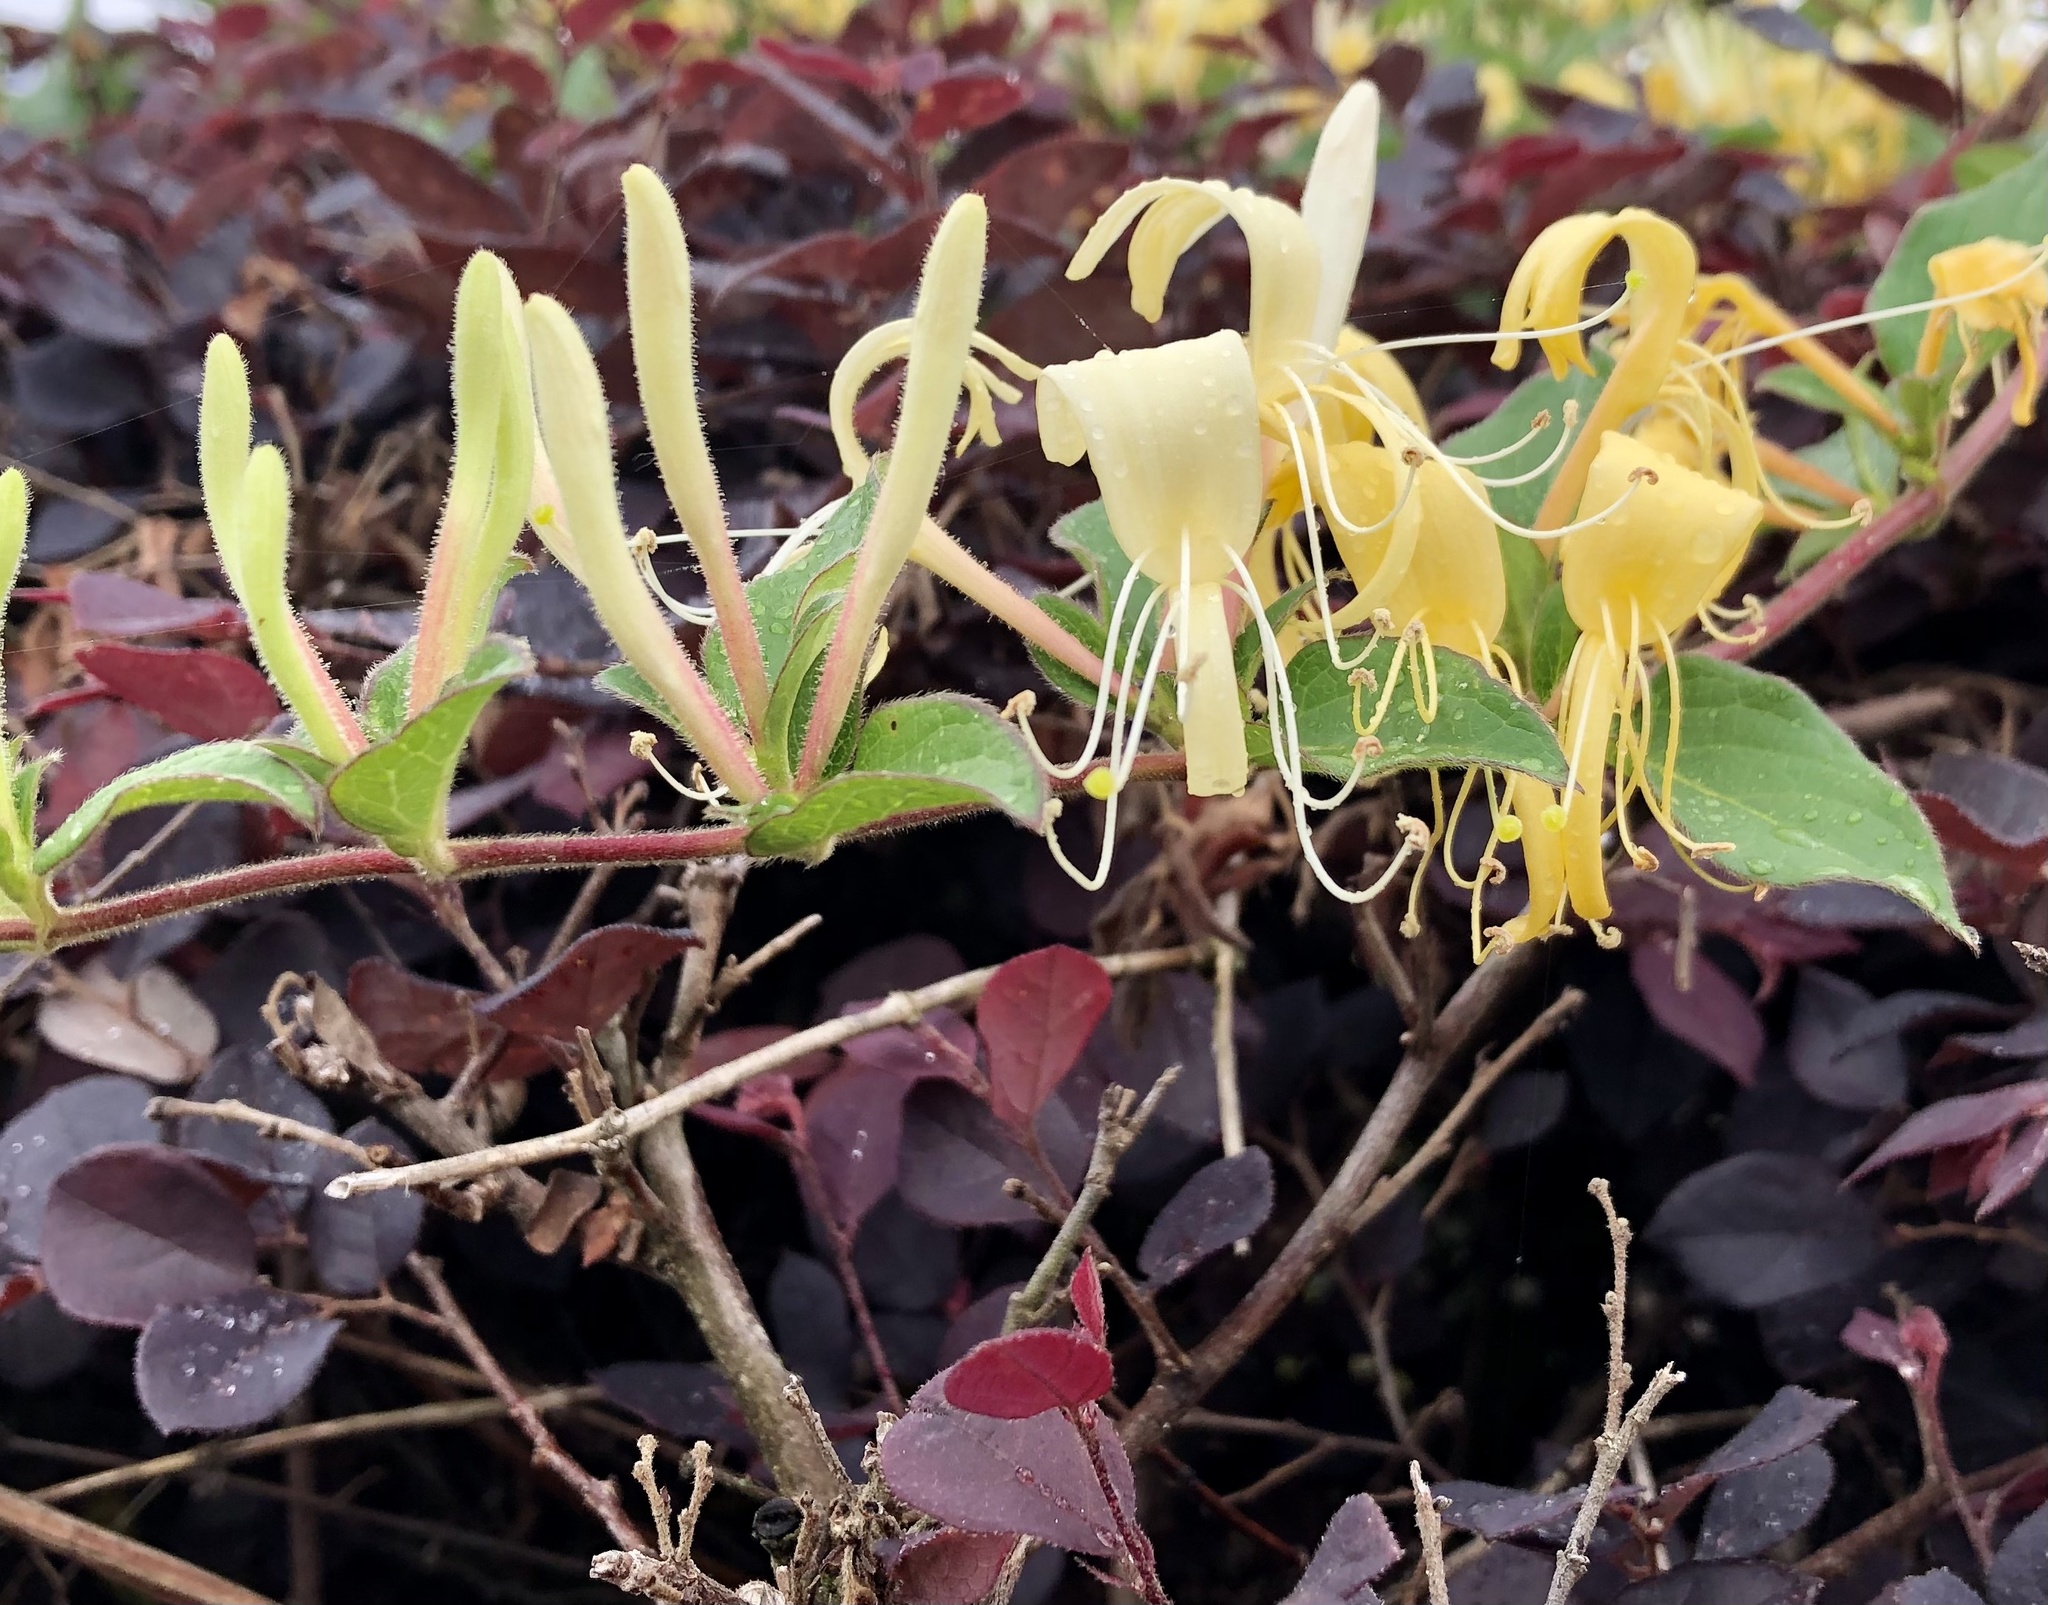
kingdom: Plantae
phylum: Tracheophyta
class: Magnoliopsida
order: Dipsacales
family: Caprifoliaceae
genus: Lonicera
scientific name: Lonicera japonica
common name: Japanese honeysuckle
